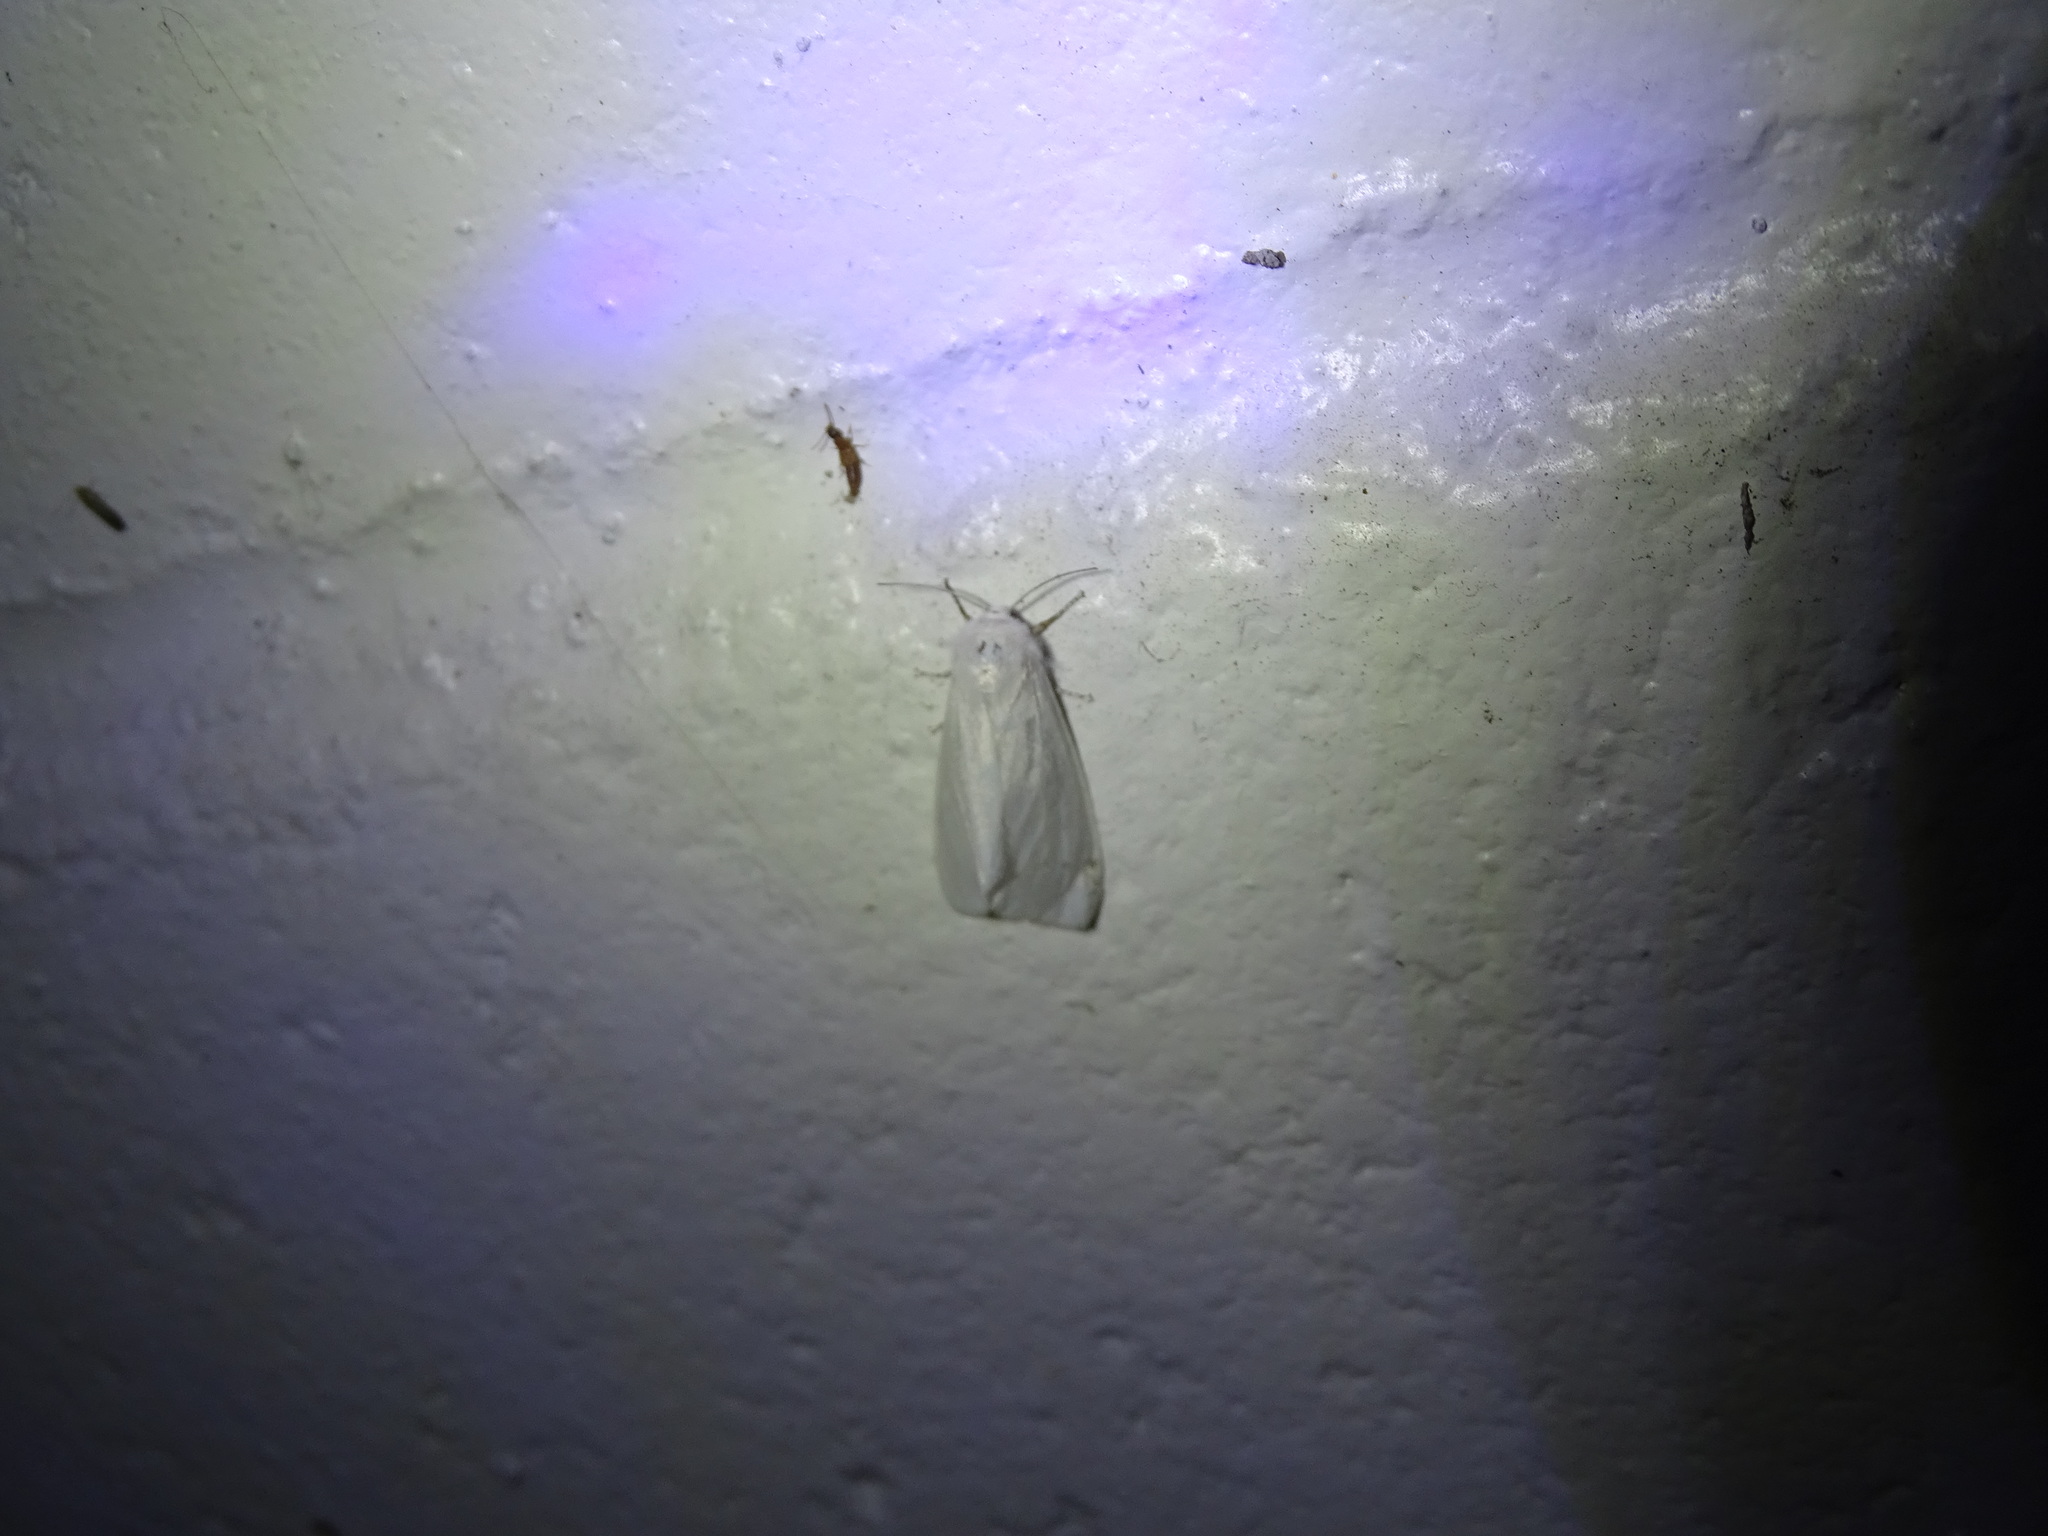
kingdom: Animalia
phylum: Arthropoda
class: Insecta
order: Lepidoptera
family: Erebidae
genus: Hyphantria
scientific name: Hyphantria cunea
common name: American white moth
